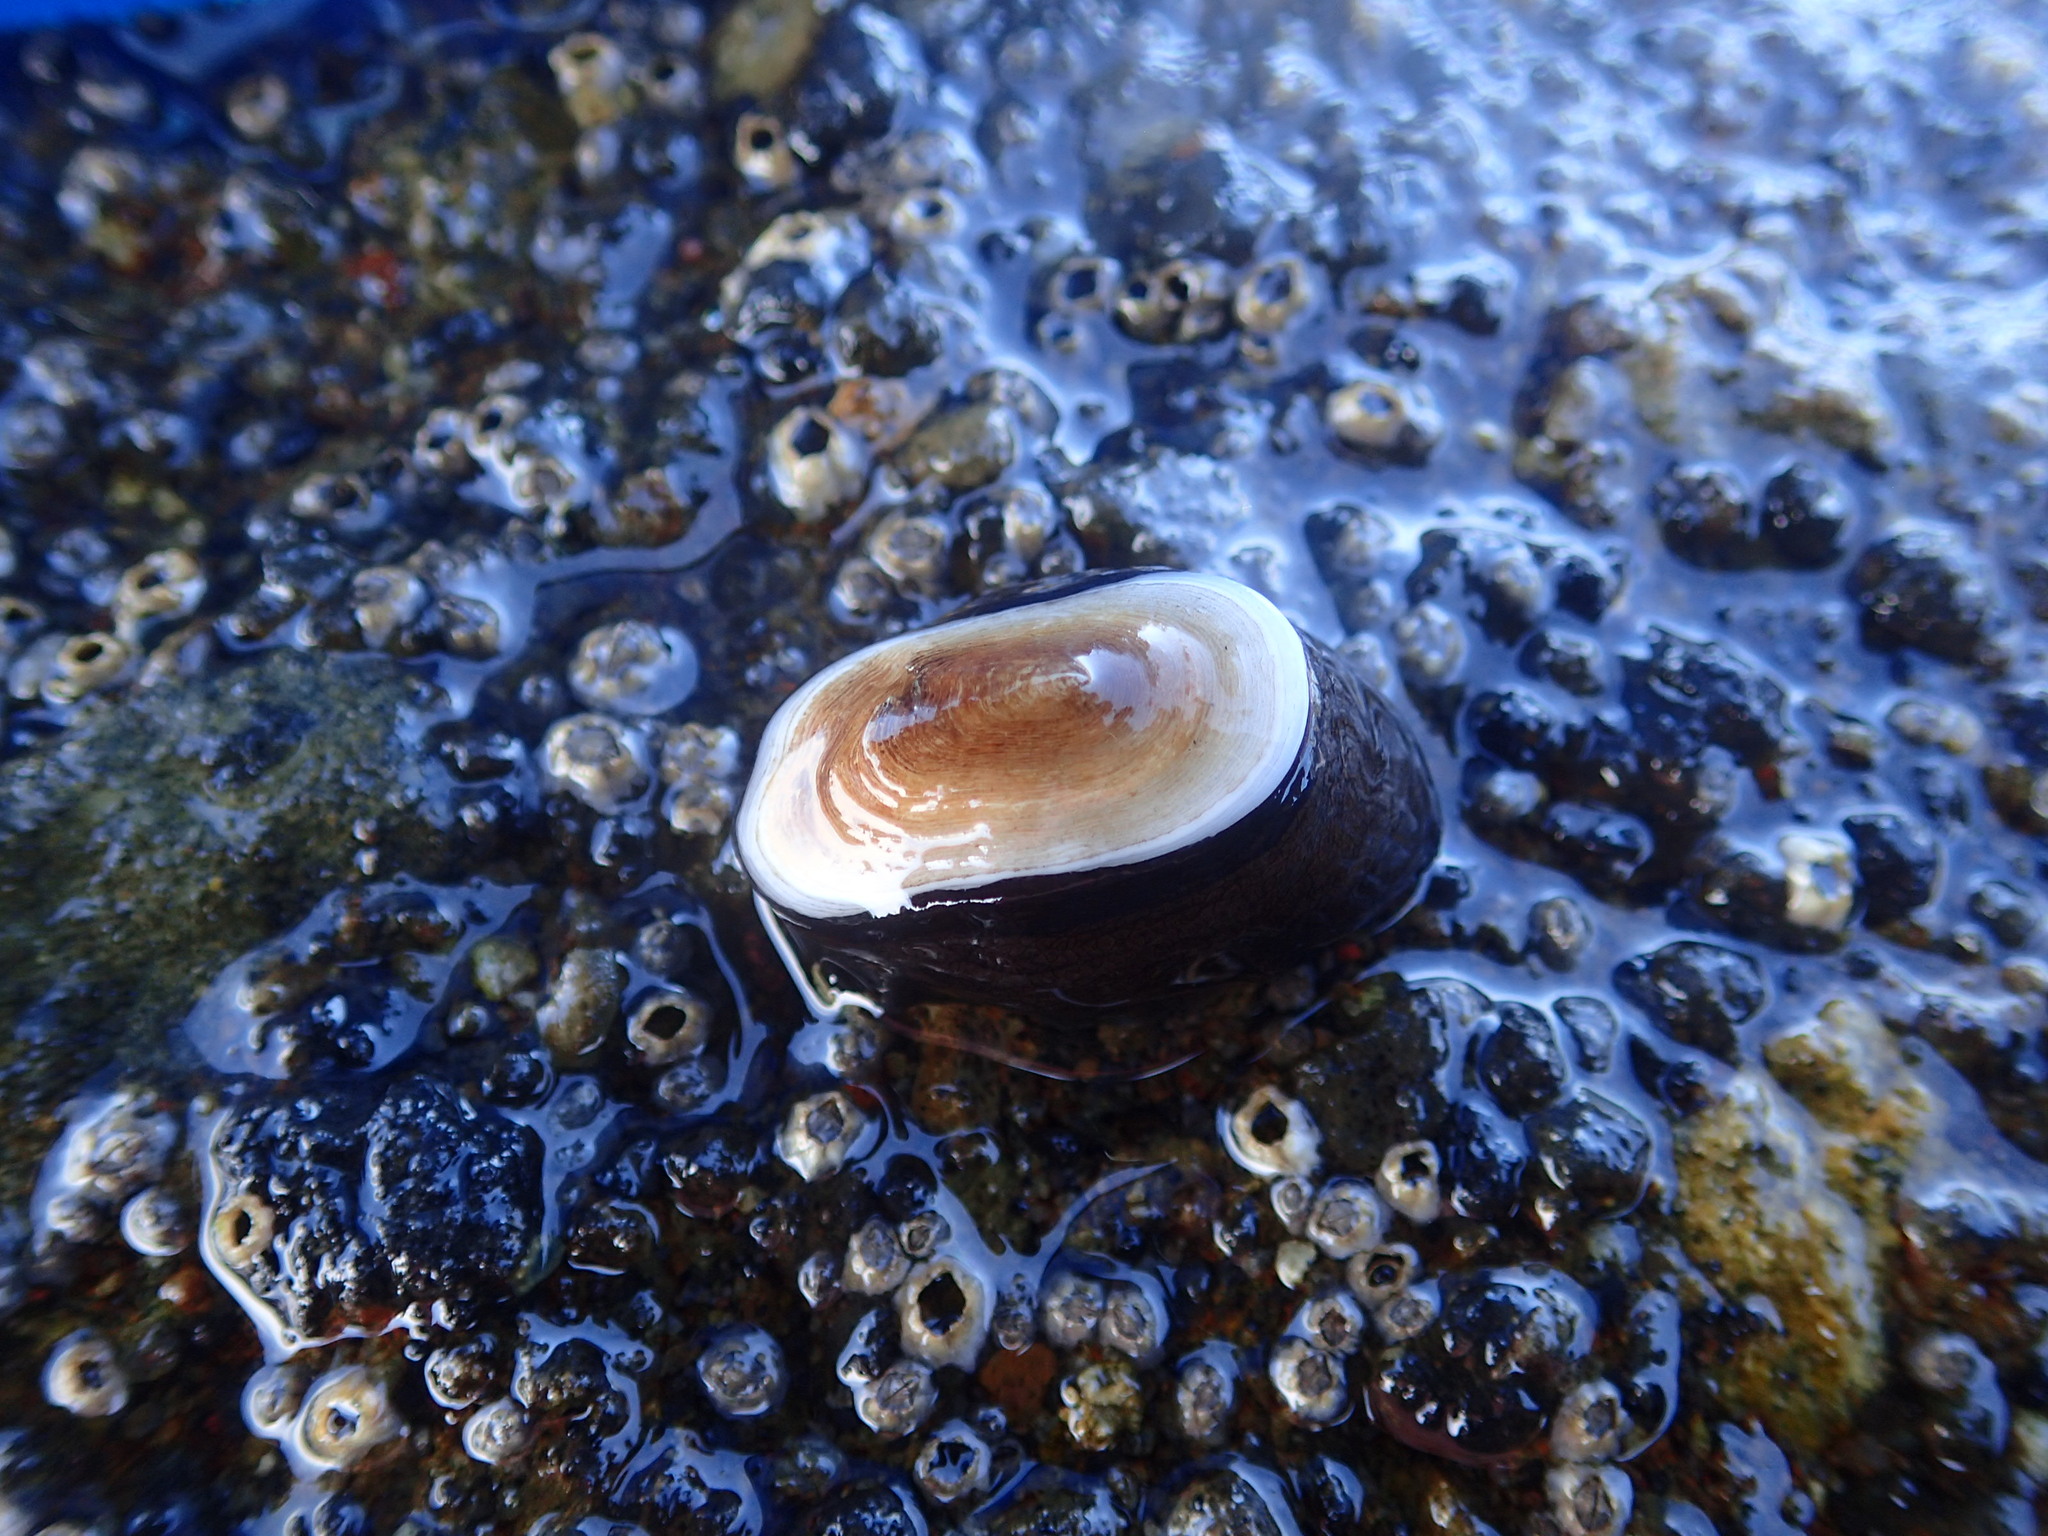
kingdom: Animalia
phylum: Mollusca
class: Gastropoda
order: Lepetellida
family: Fissurellidae
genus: Scutus
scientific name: Scutus sinensis
